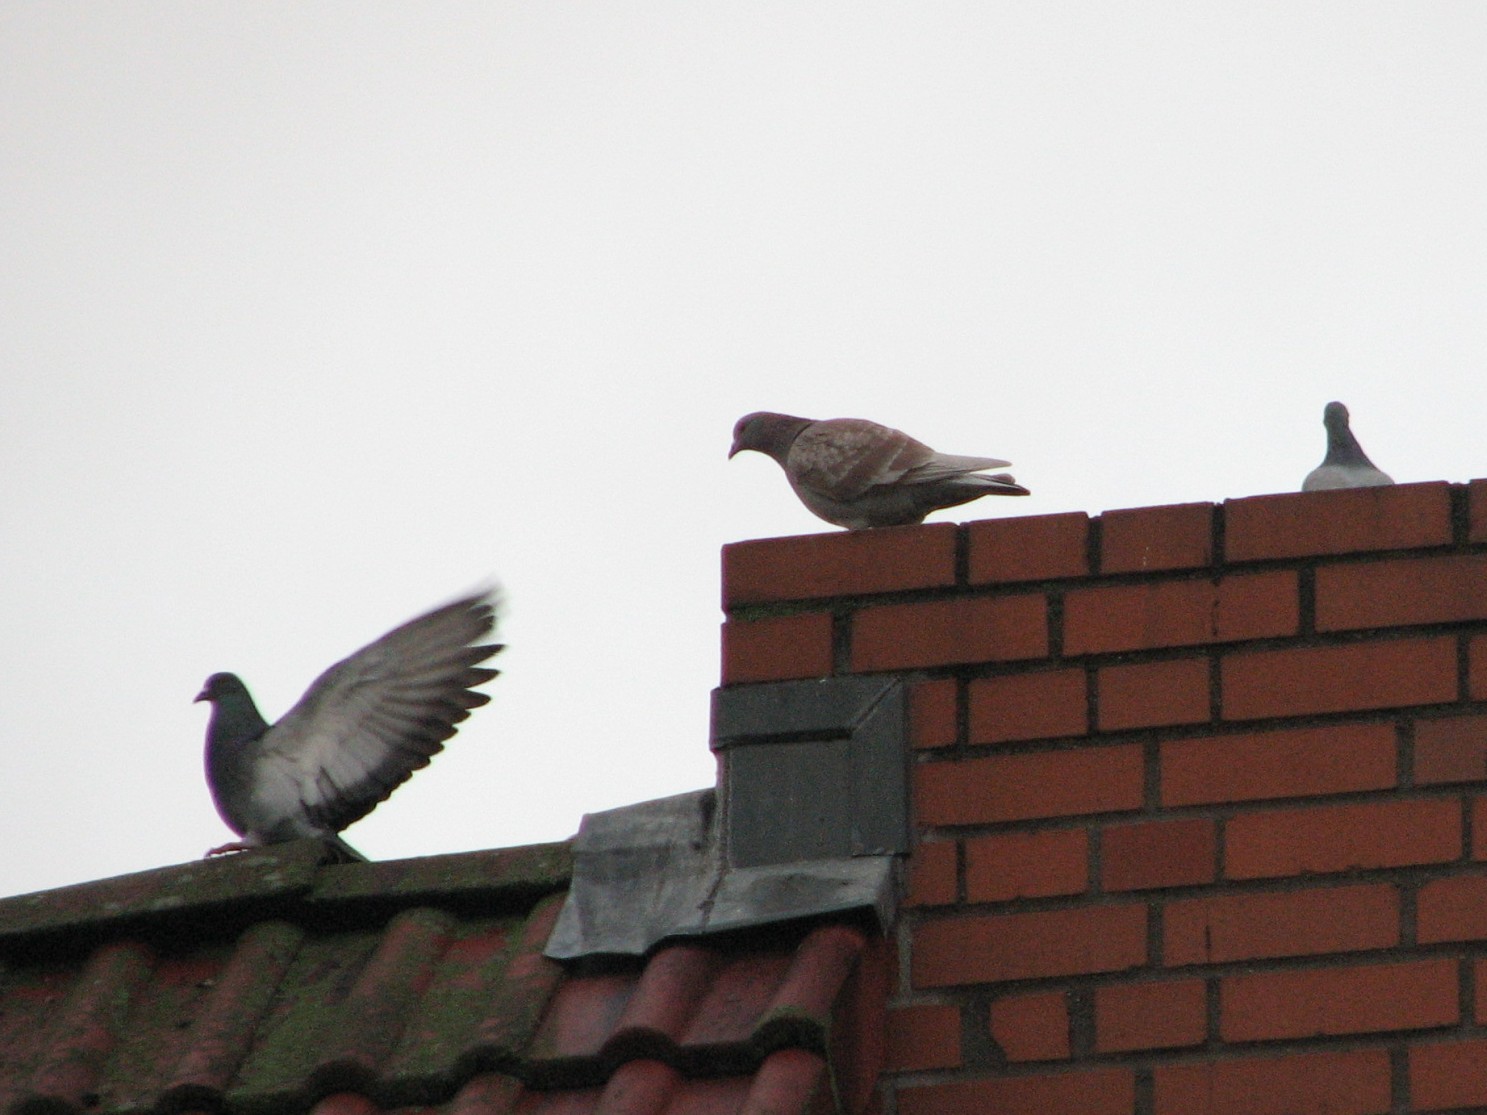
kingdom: Animalia
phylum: Chordata
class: Aves
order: Columbiformes
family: Columbidae
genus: Columba
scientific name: Columba livia
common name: Rock pigeon
